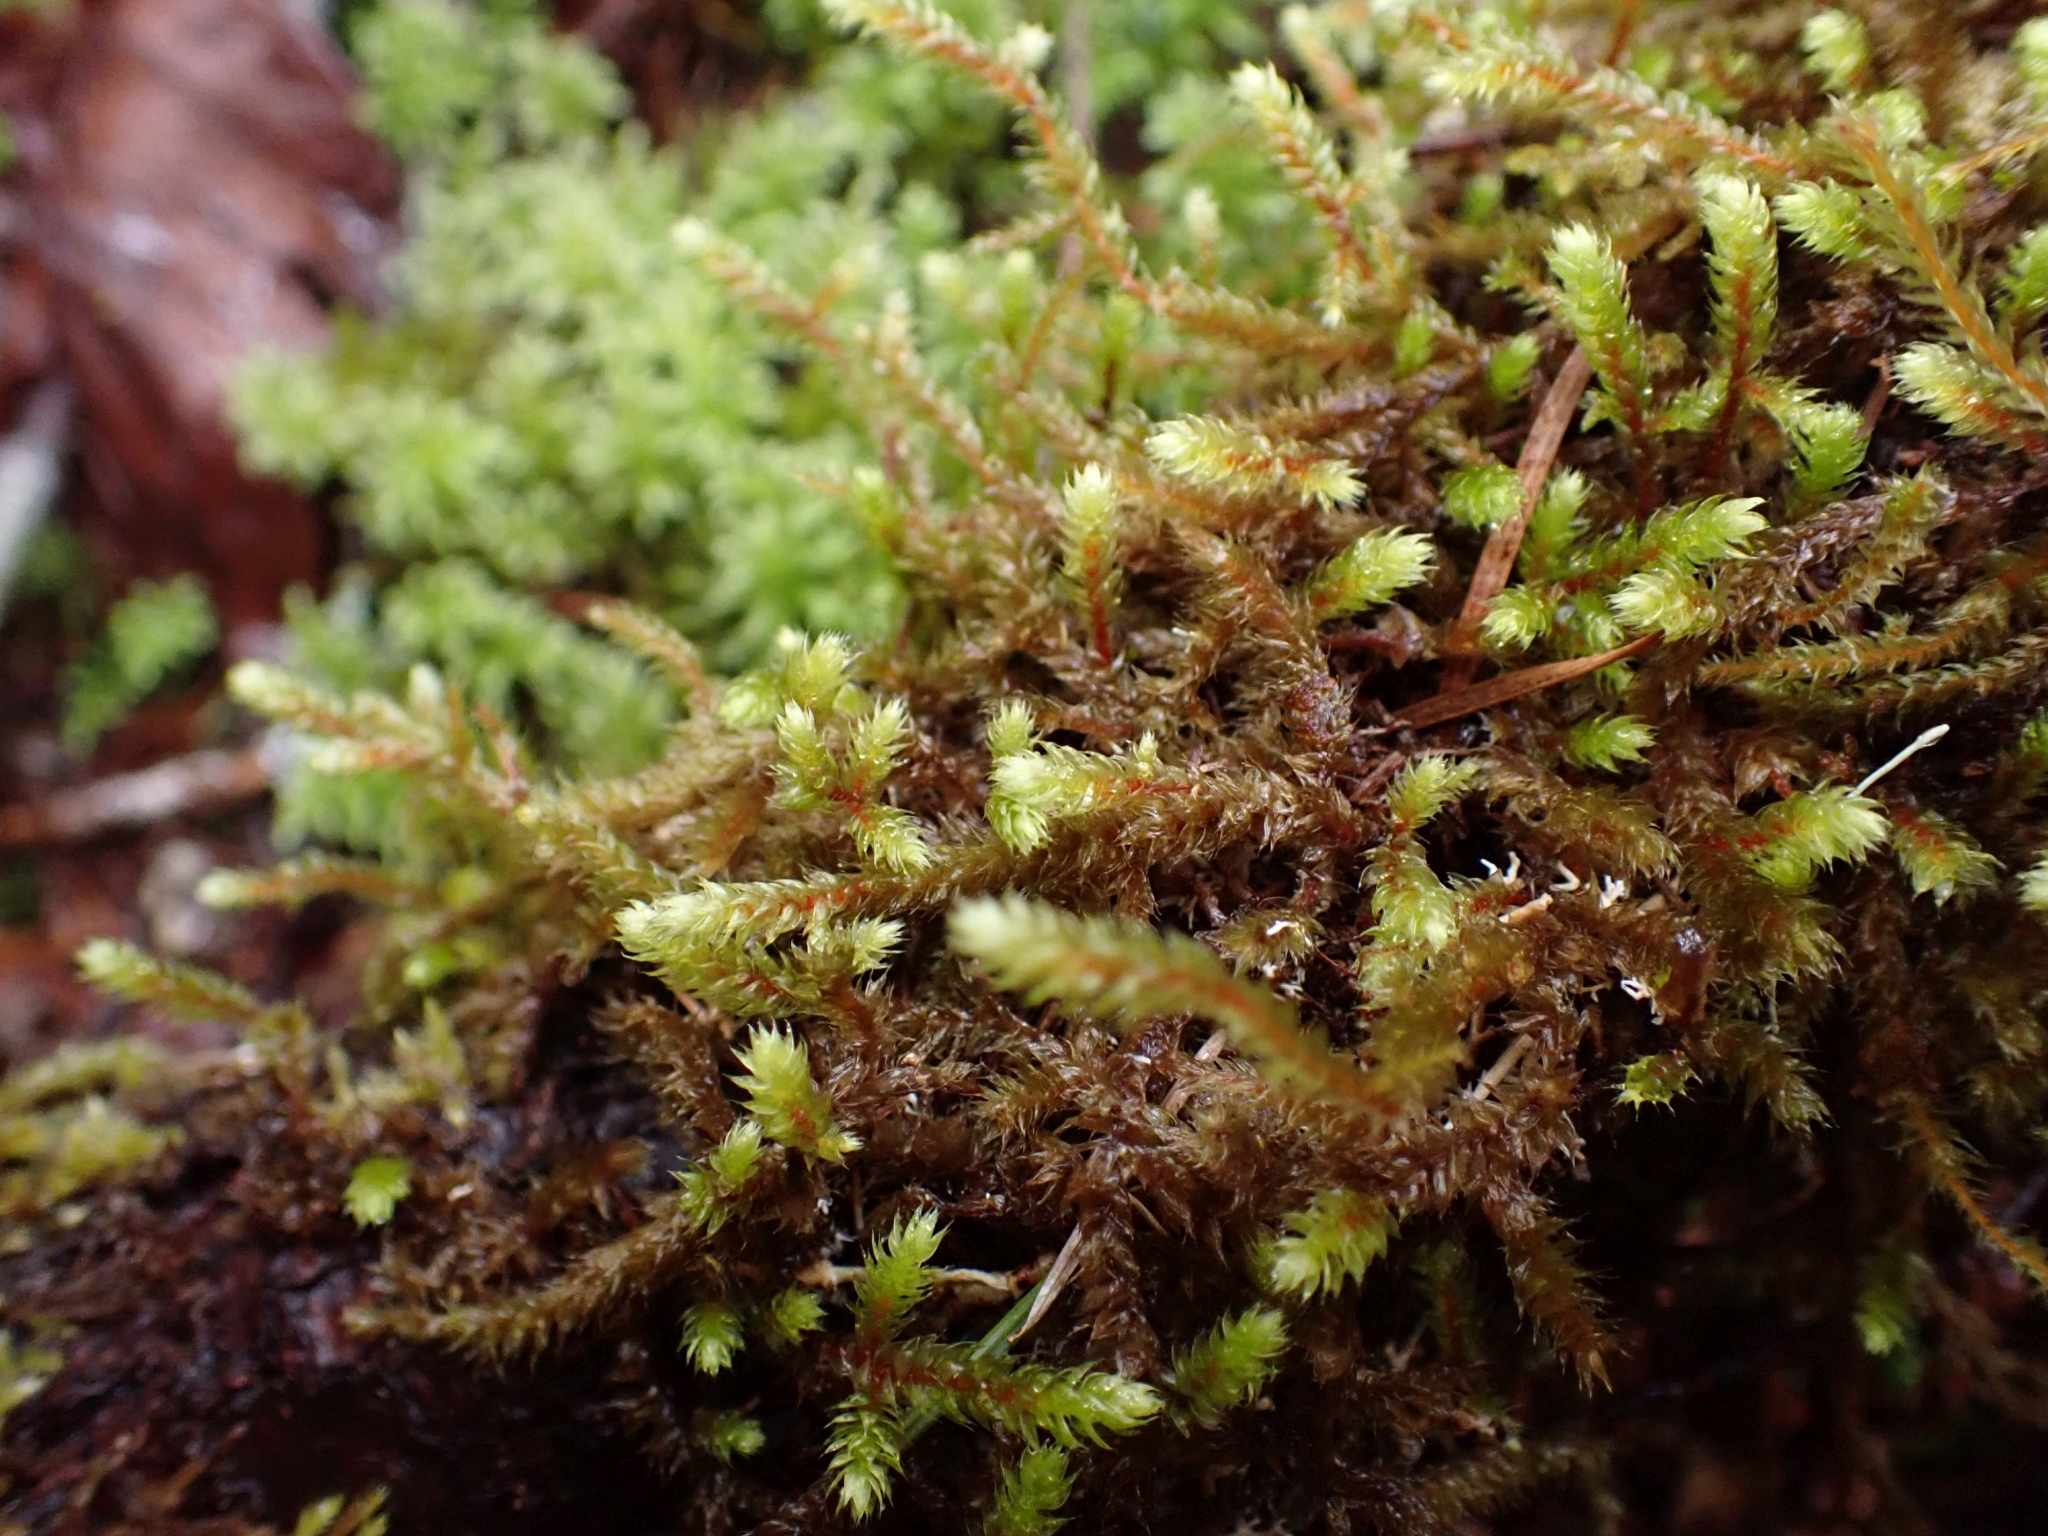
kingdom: Plantae
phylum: Bryophyta
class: Bryopsida
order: Hypnales
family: Antitrichiaceae
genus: Antitrichia
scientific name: Antitrichia curtipendula
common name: Pendulous wing-moss
